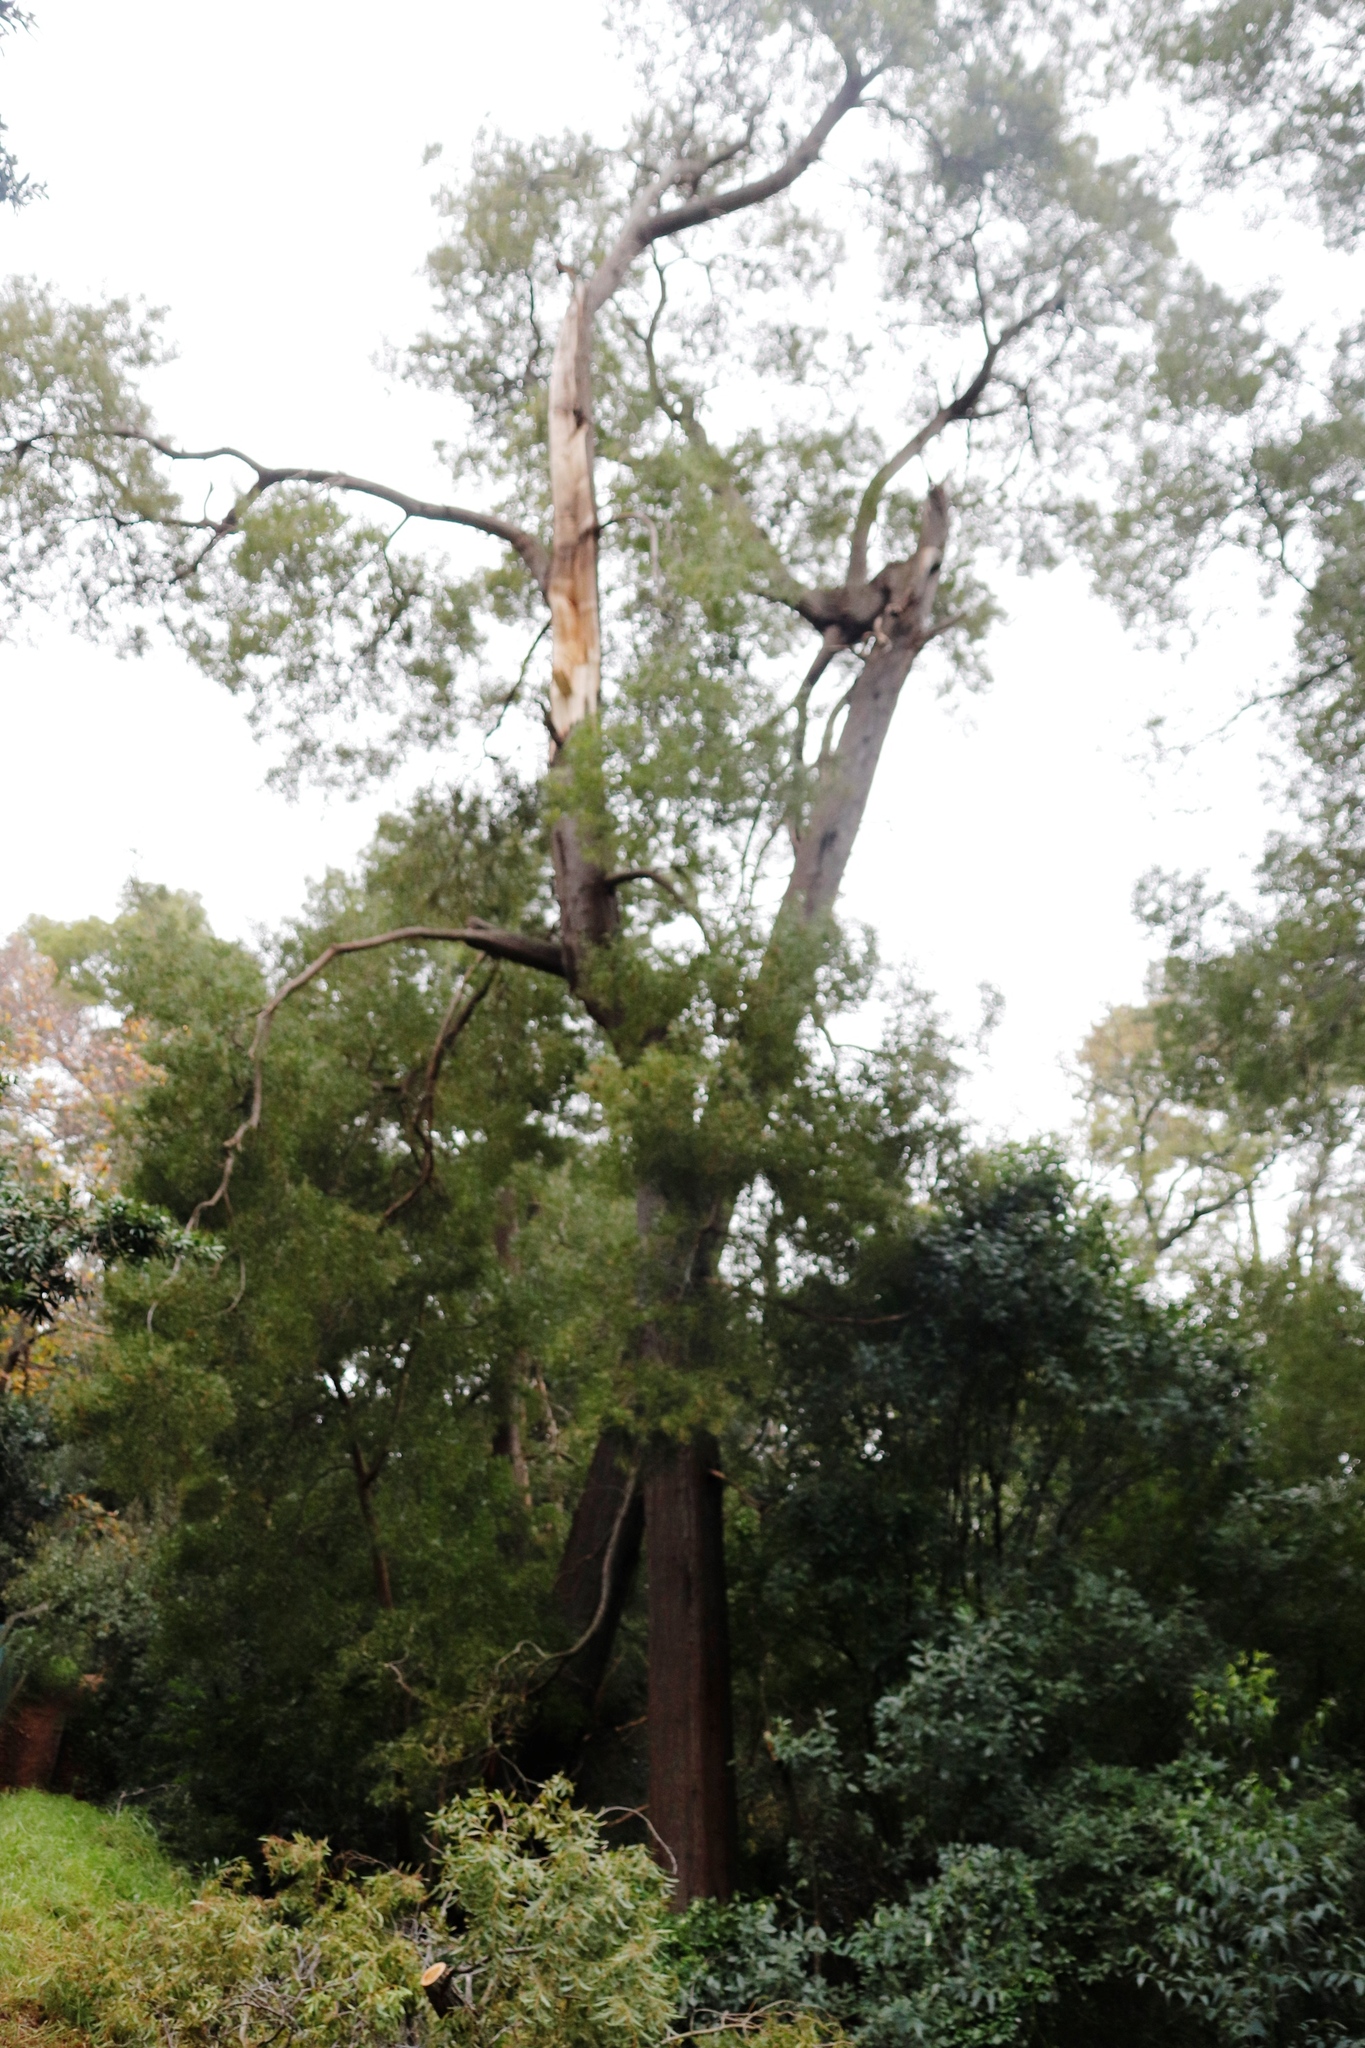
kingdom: Plantae
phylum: Tracheophyta
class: Magnoliopsida
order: Fabales
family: Fabaceae
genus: Acacia
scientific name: Acacia melanoxylon
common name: Blackwood
